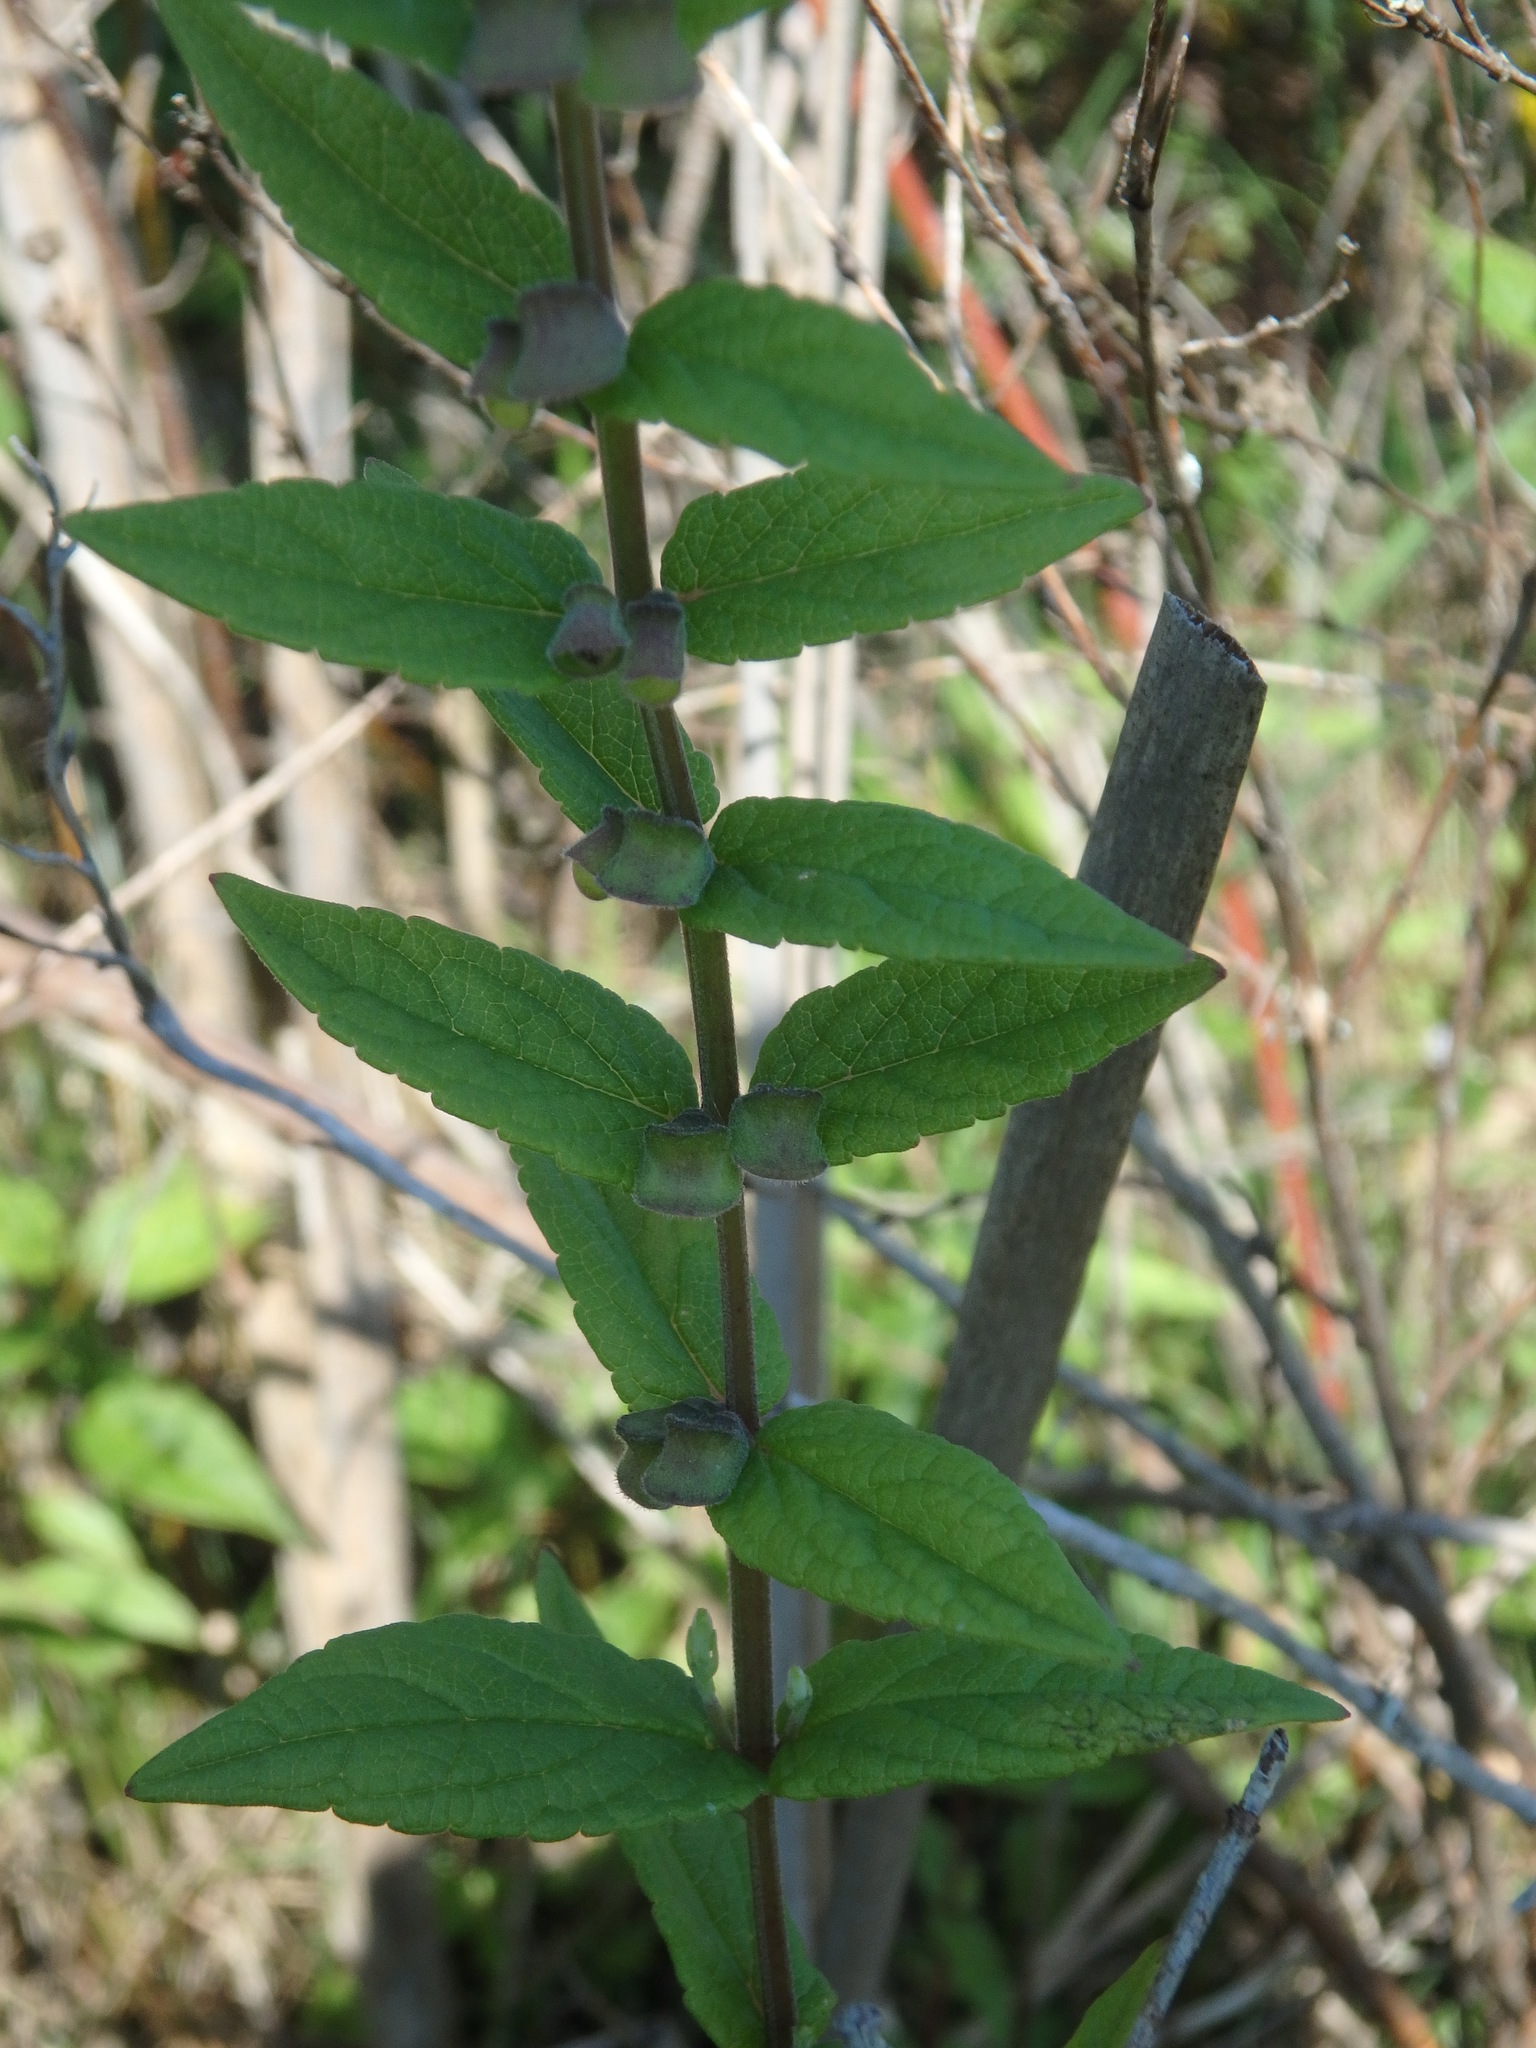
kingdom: Plantae
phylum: Tracheophyta
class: Magnoliopsida
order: Lamiales
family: Lamiaceae
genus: Scutellaria
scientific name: Scutellaria galericulata
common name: Skullcap
